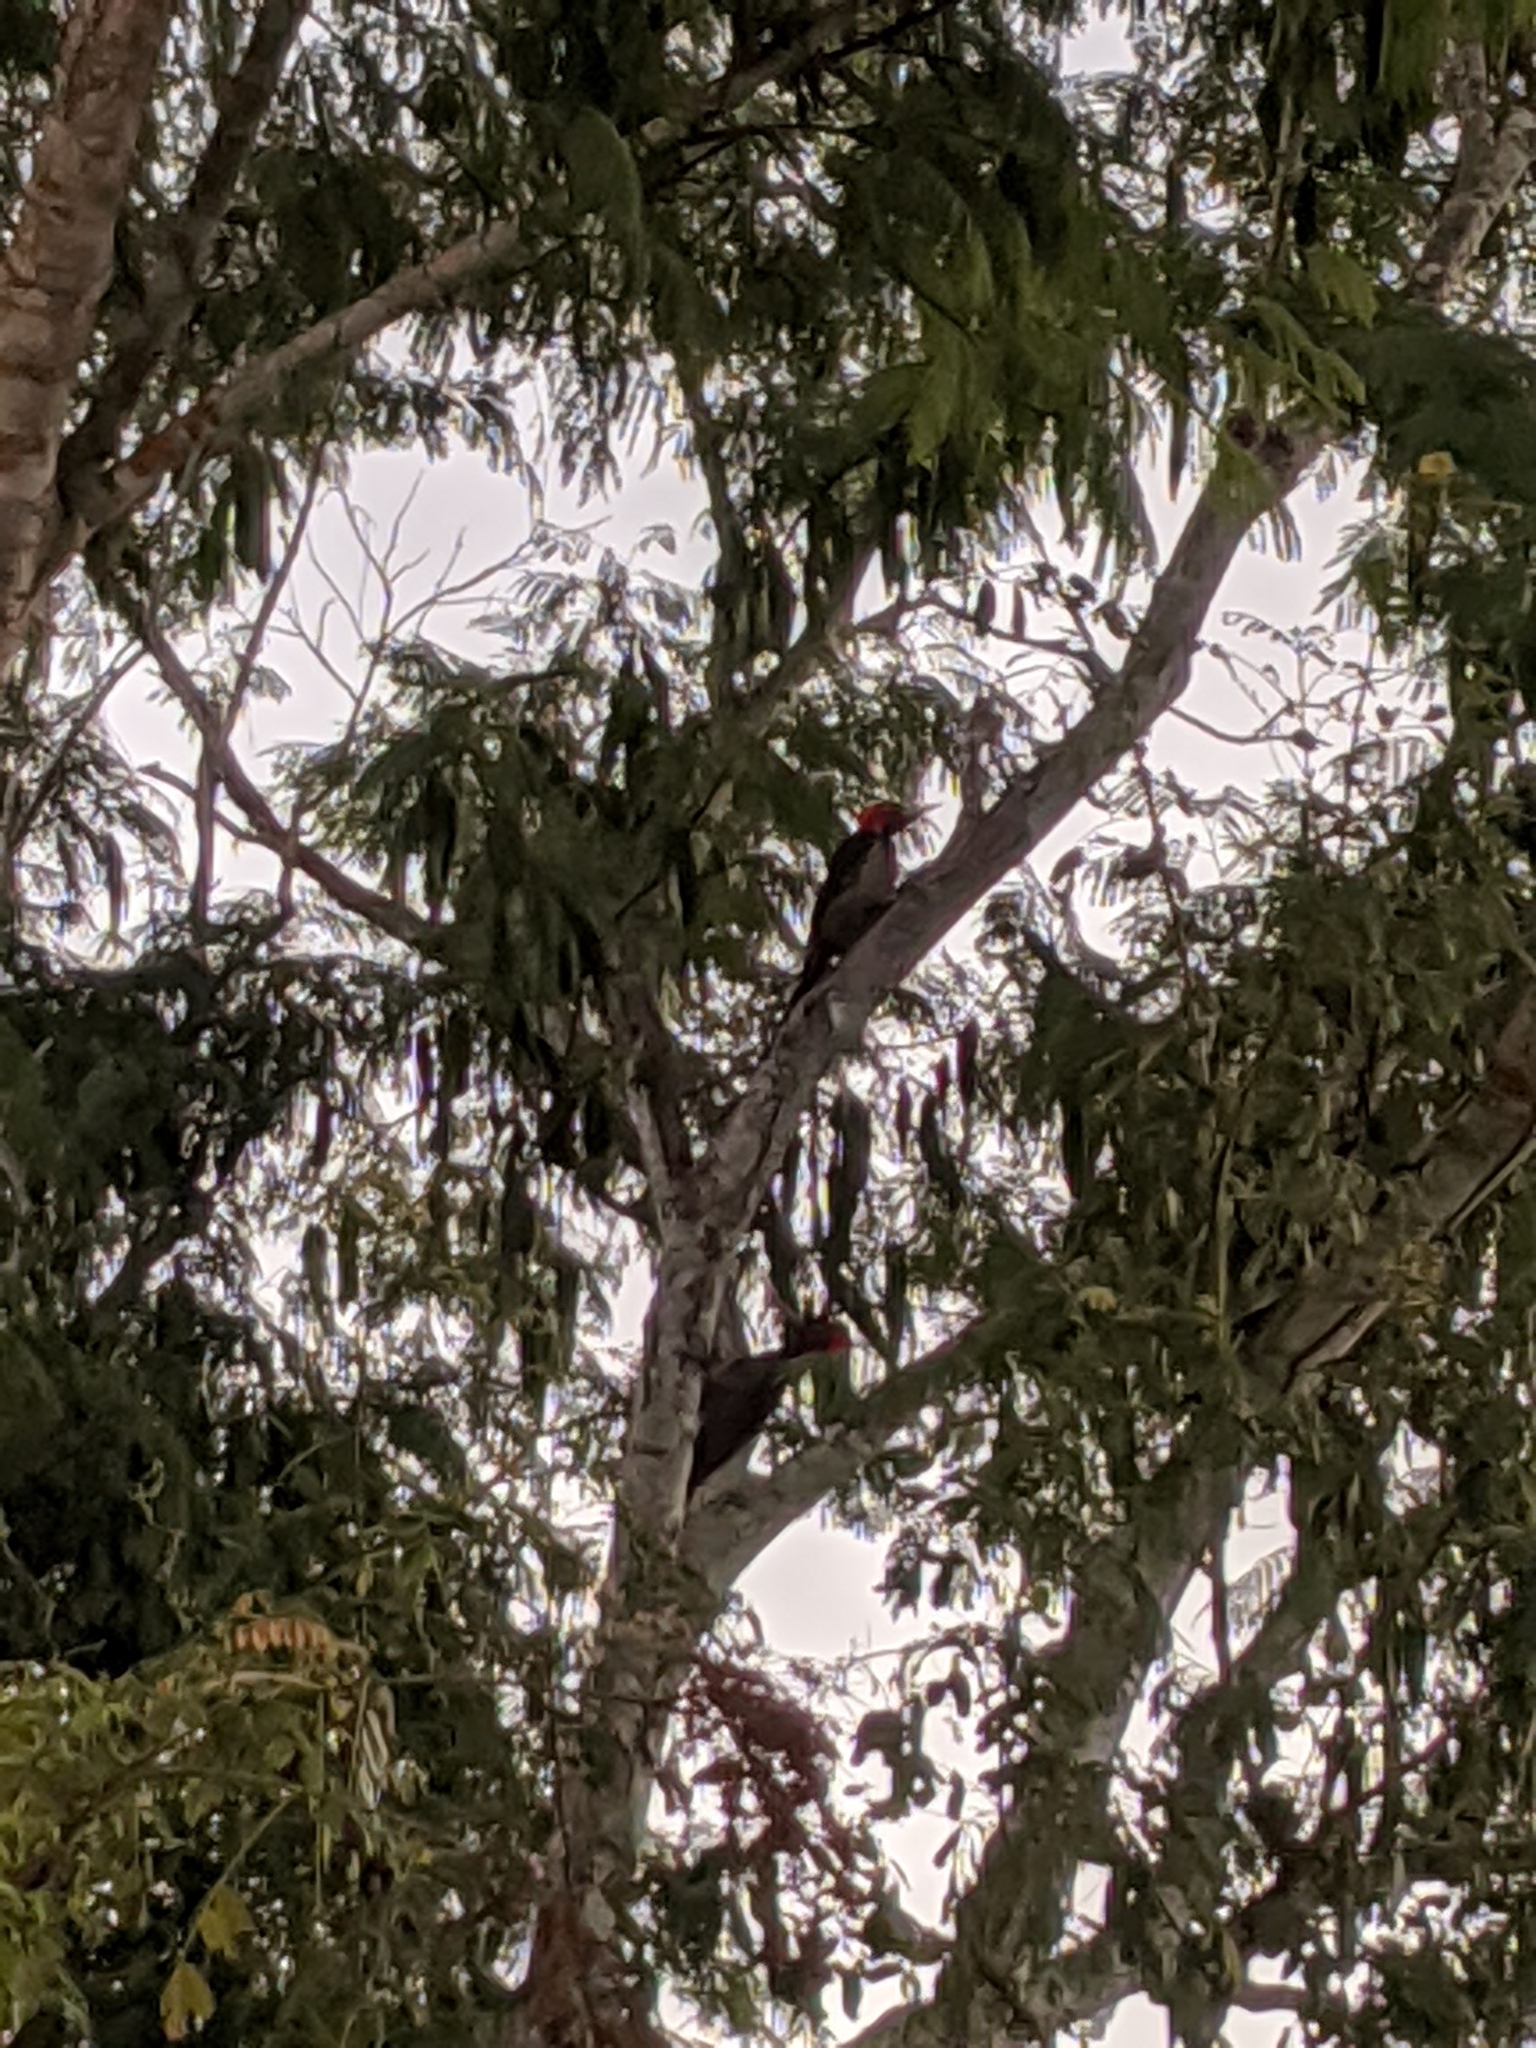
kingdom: Animalia
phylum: Chordata
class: Aves
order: Piciformes
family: Picidae
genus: Campephilus
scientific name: Campephilus guatemalensis
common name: Pale-billed woodpecker
